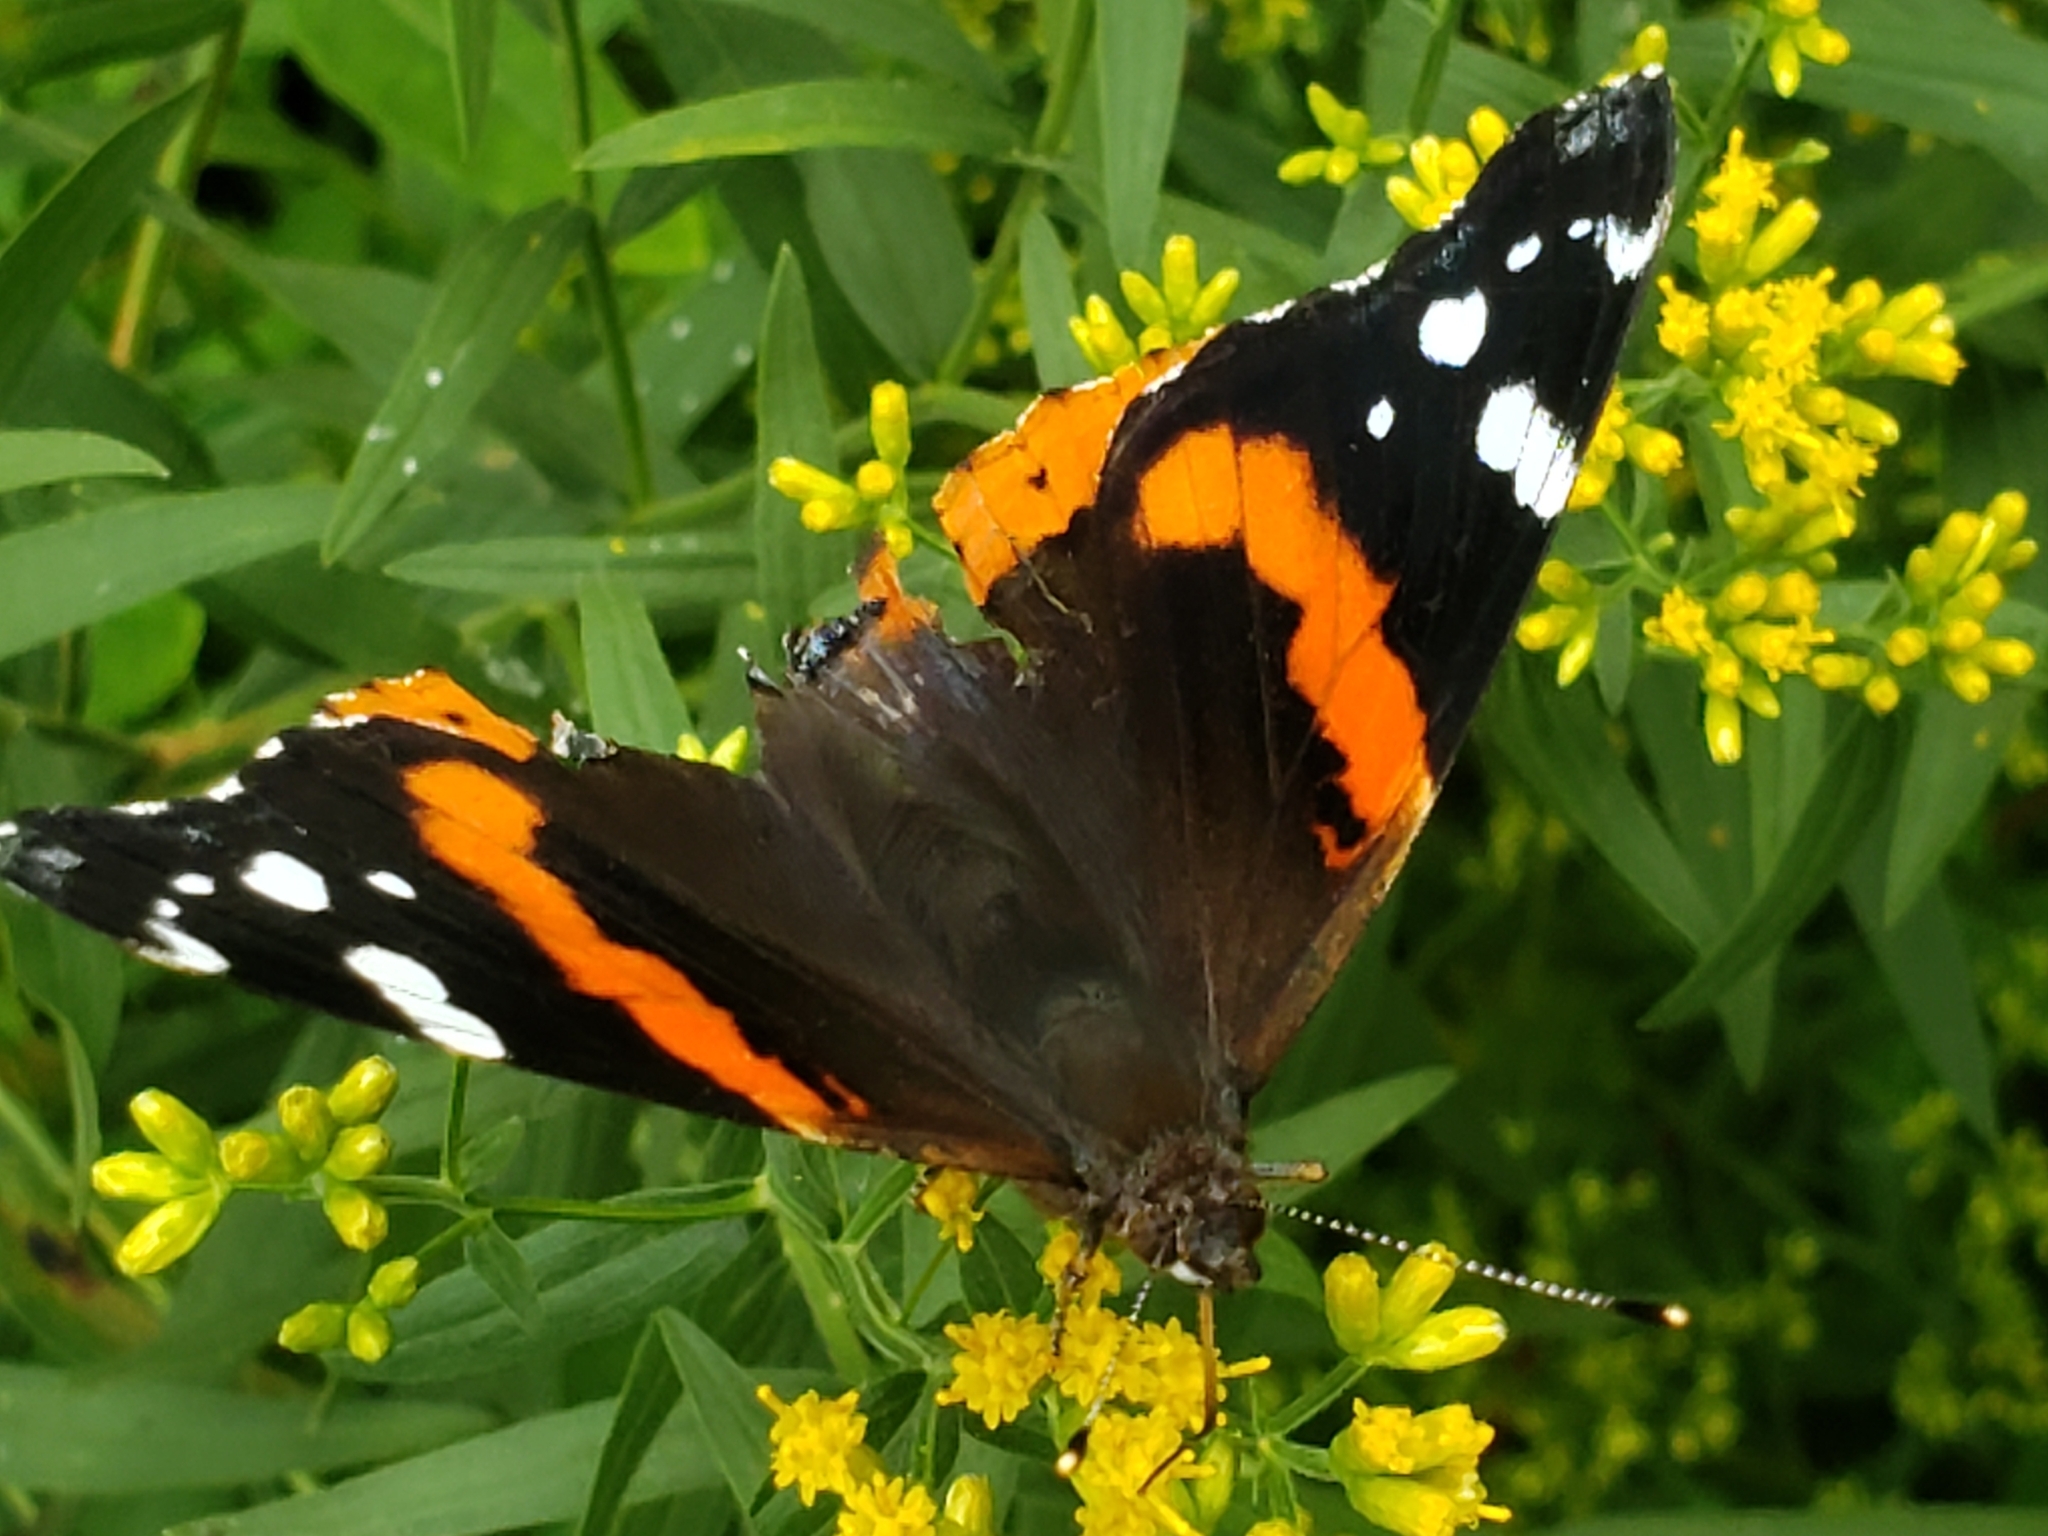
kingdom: Animalia
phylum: Arthropoda
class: Insecta
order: Lepidoptera
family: Nymphalidae
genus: Vanessa
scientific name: Vanessa atalanta
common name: Red admiral
